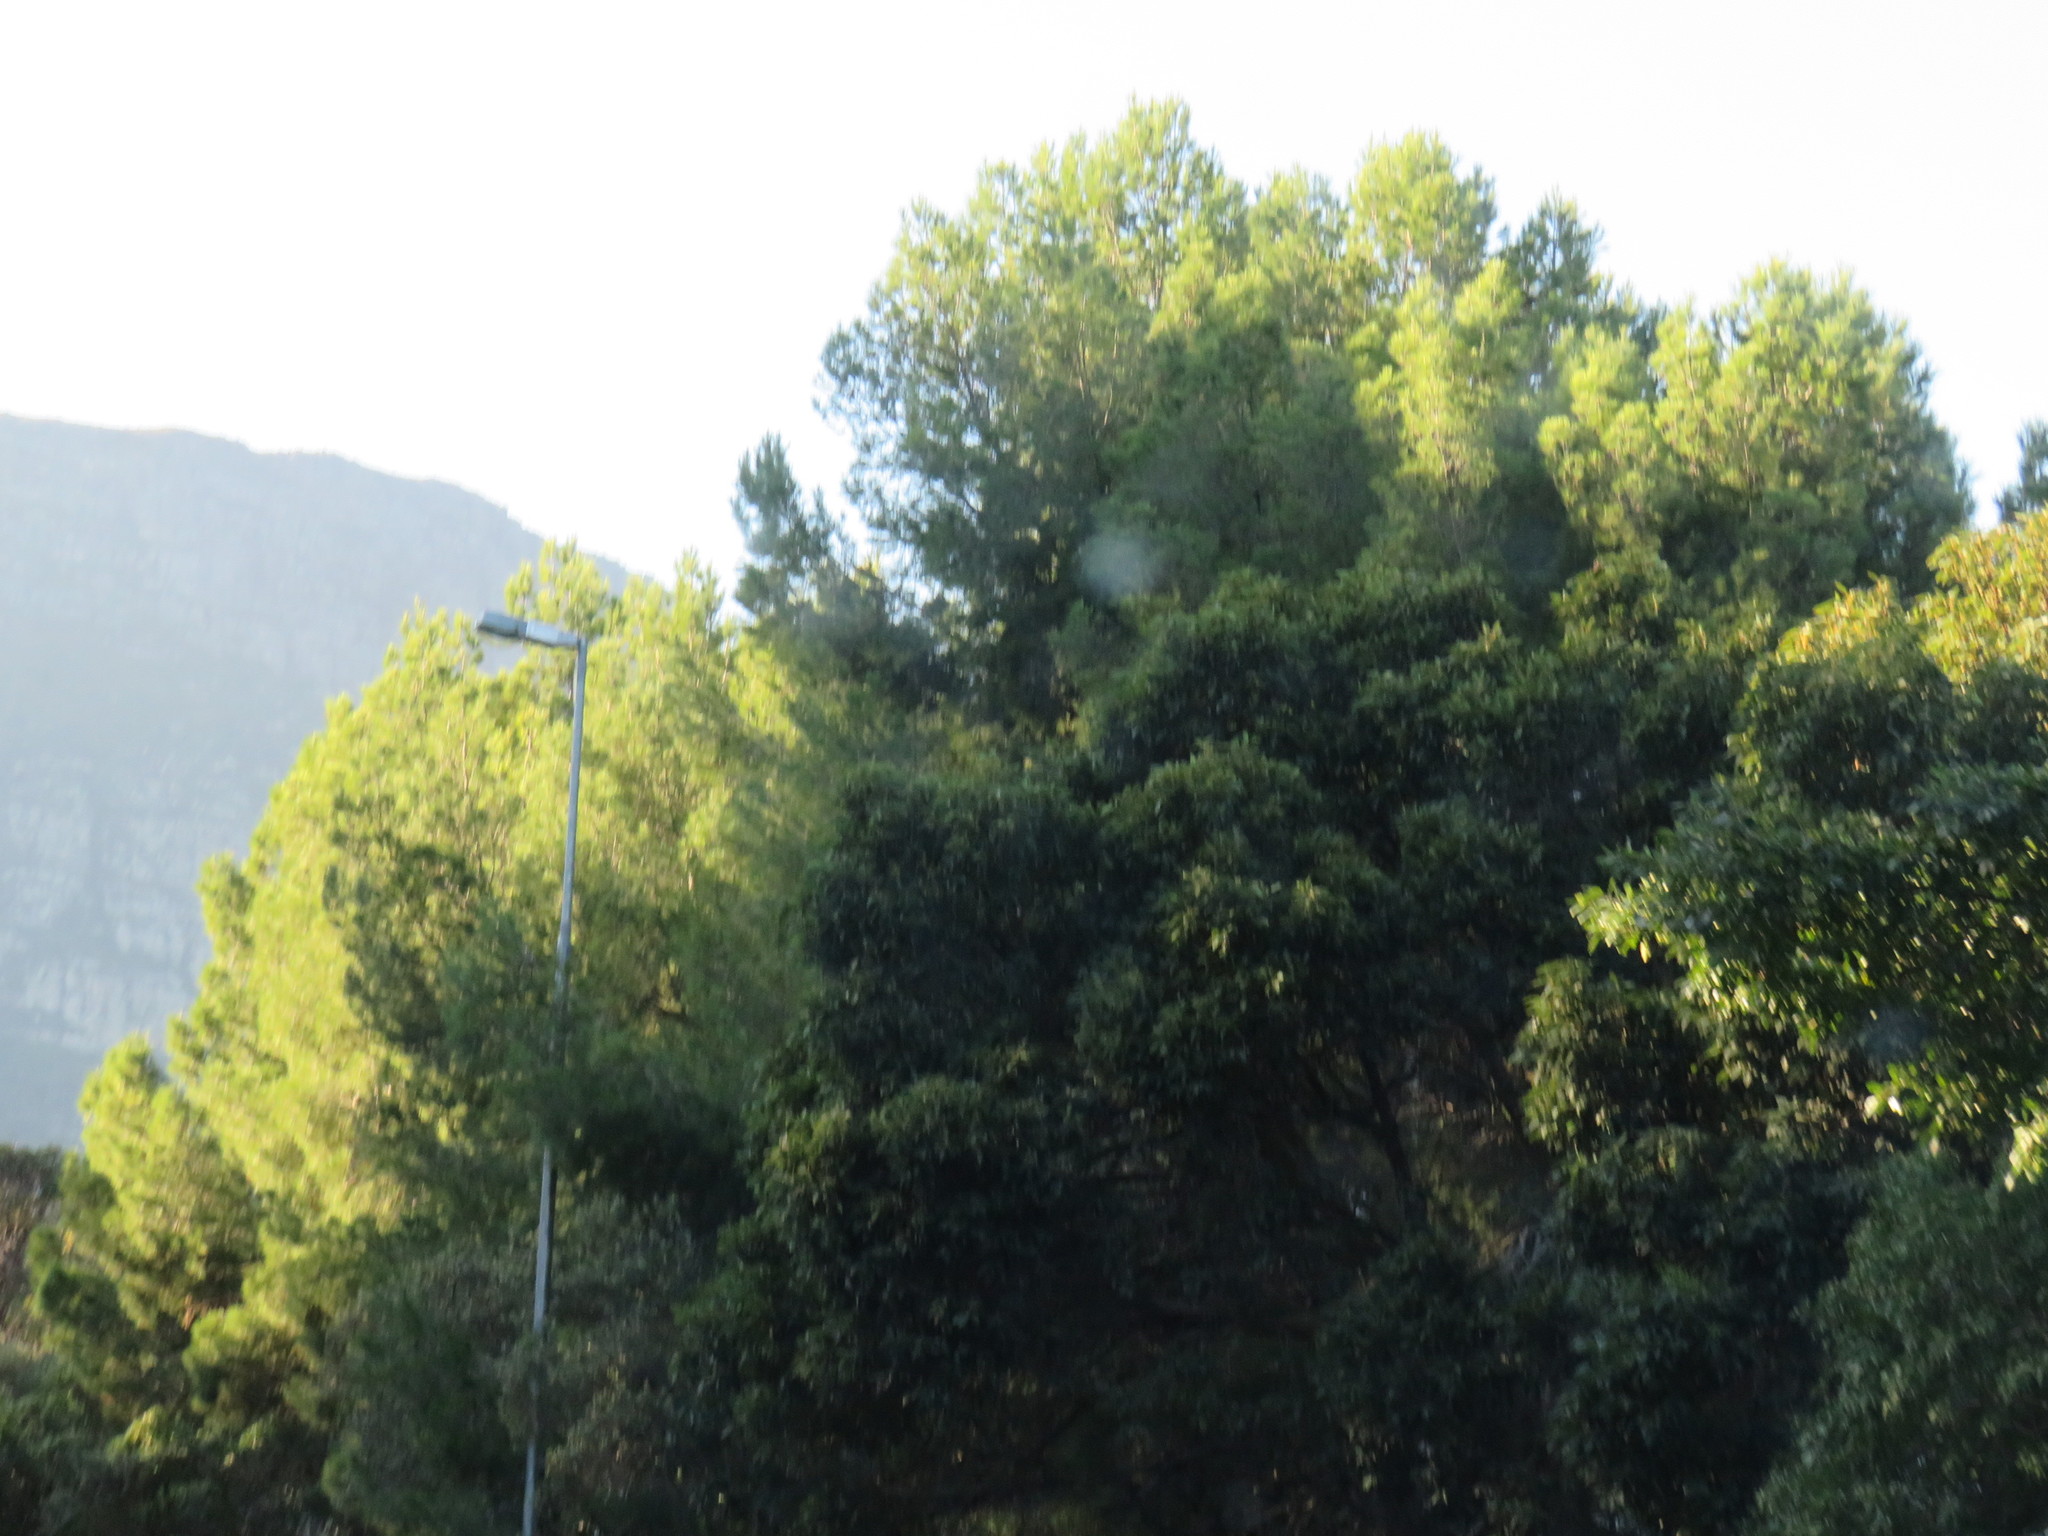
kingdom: Plantae
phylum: Tracheophyta
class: Pinopsida
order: Pinales
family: Pinaceae
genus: Pinus
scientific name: Pinus halepensis
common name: Aleppo pine
